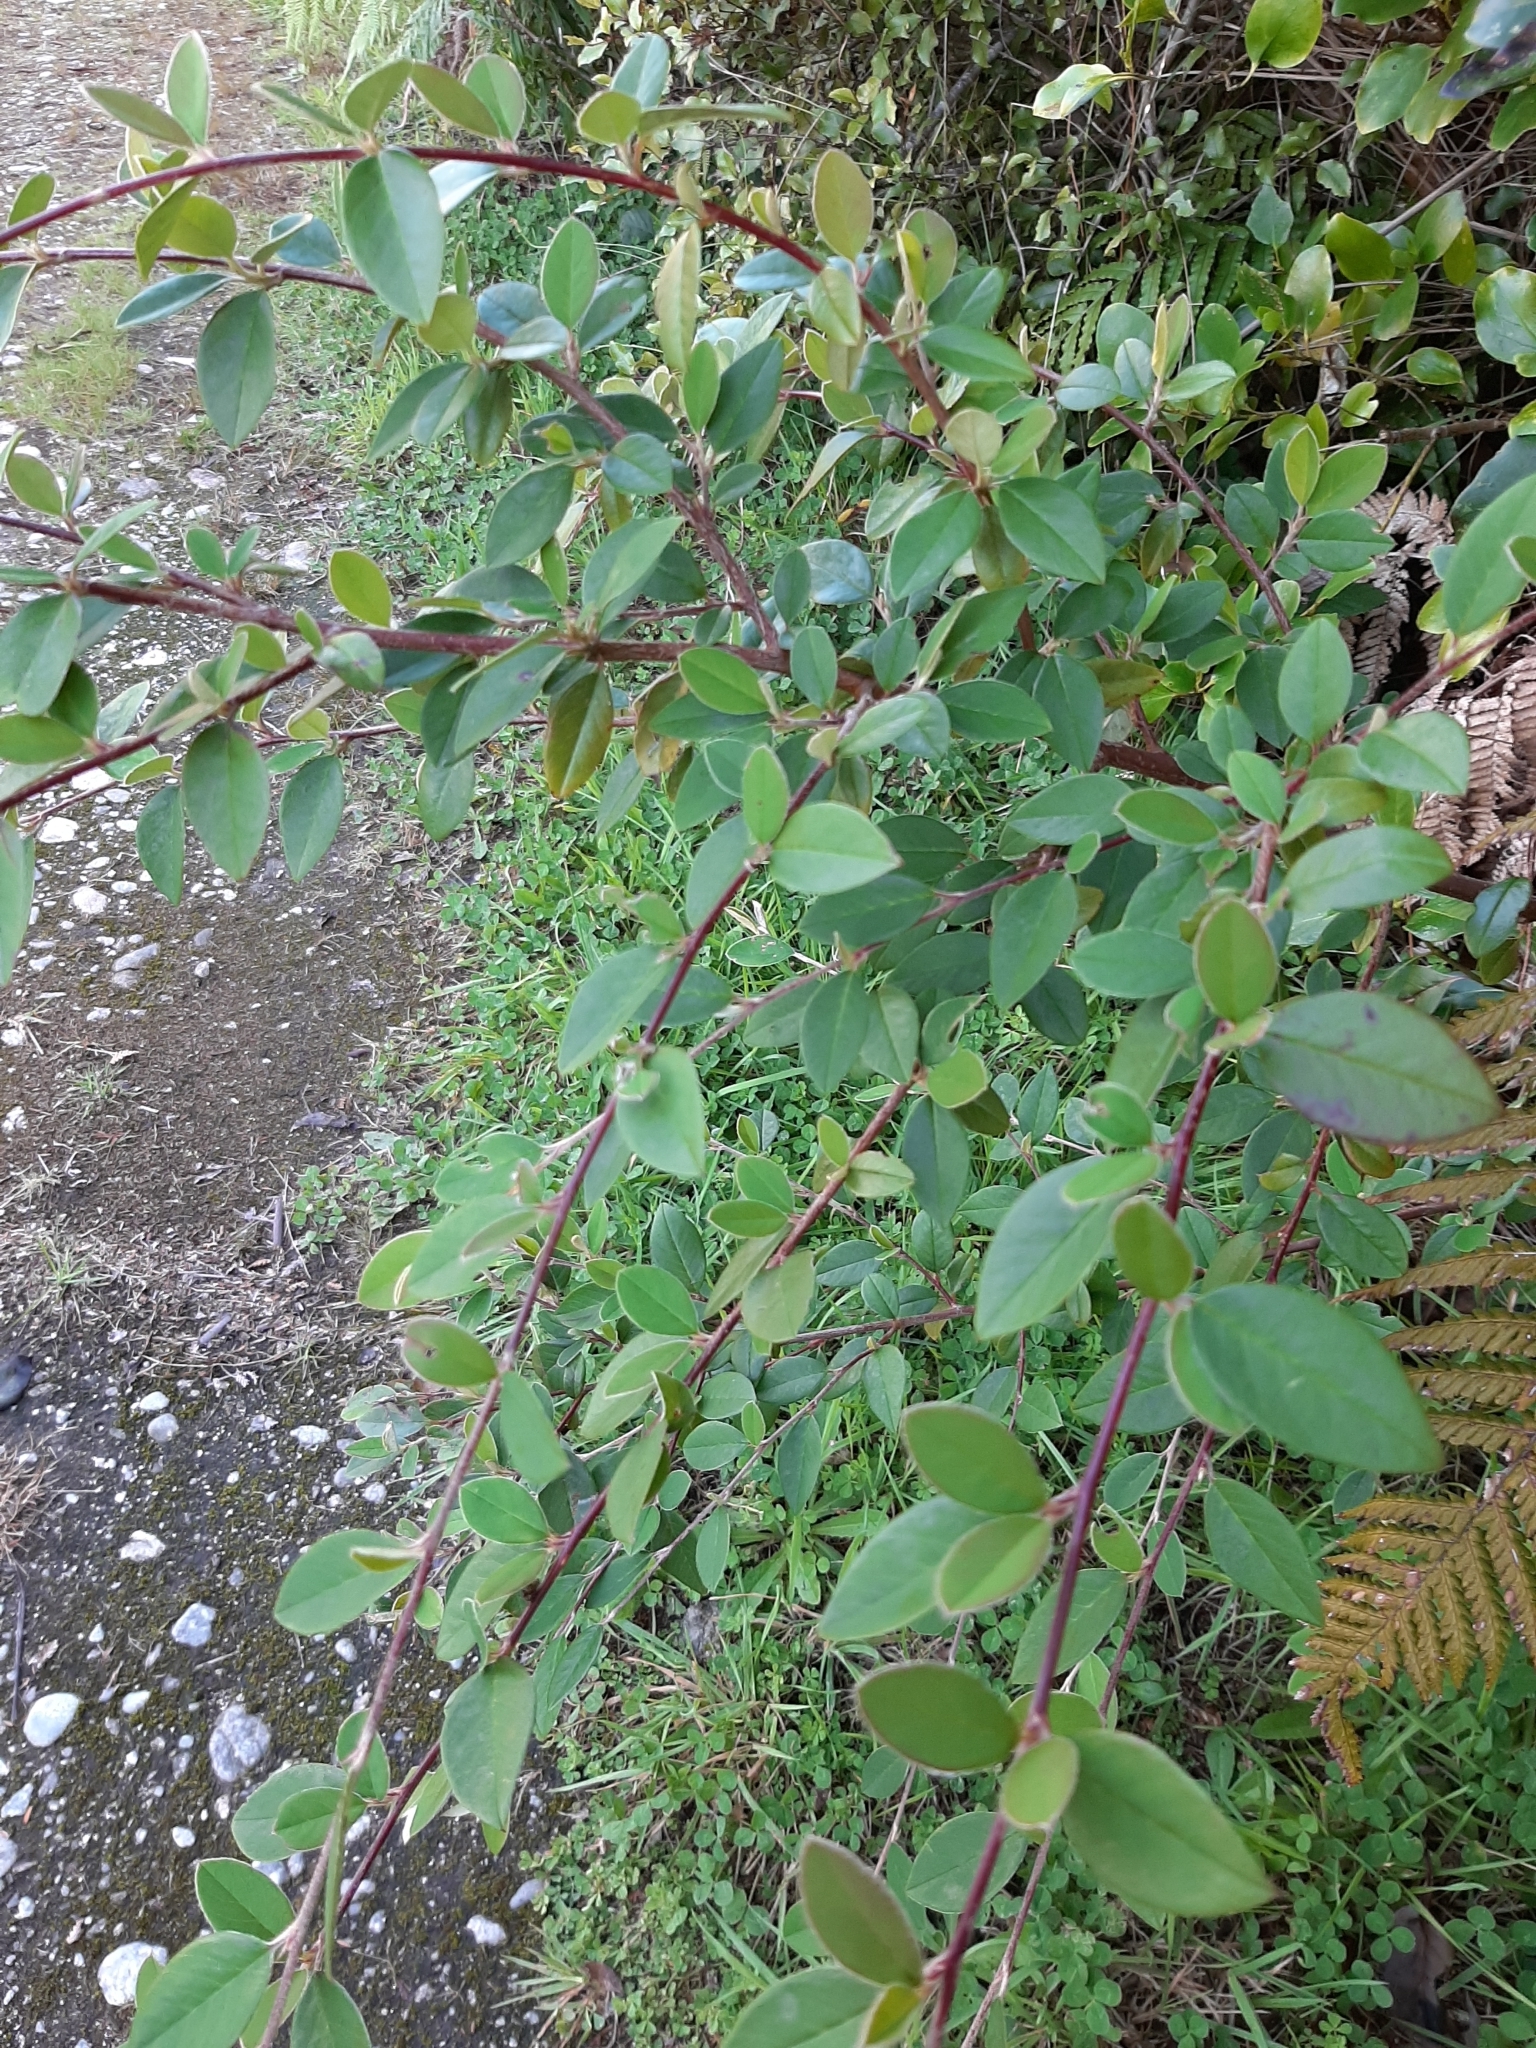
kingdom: Plantae
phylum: Tracheophyta
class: Magnoliopsida
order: Rosales
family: Rosaceae
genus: Cotoneaster
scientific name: Cotoneaster glaucophyllus
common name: Glaucous cotoneaster
